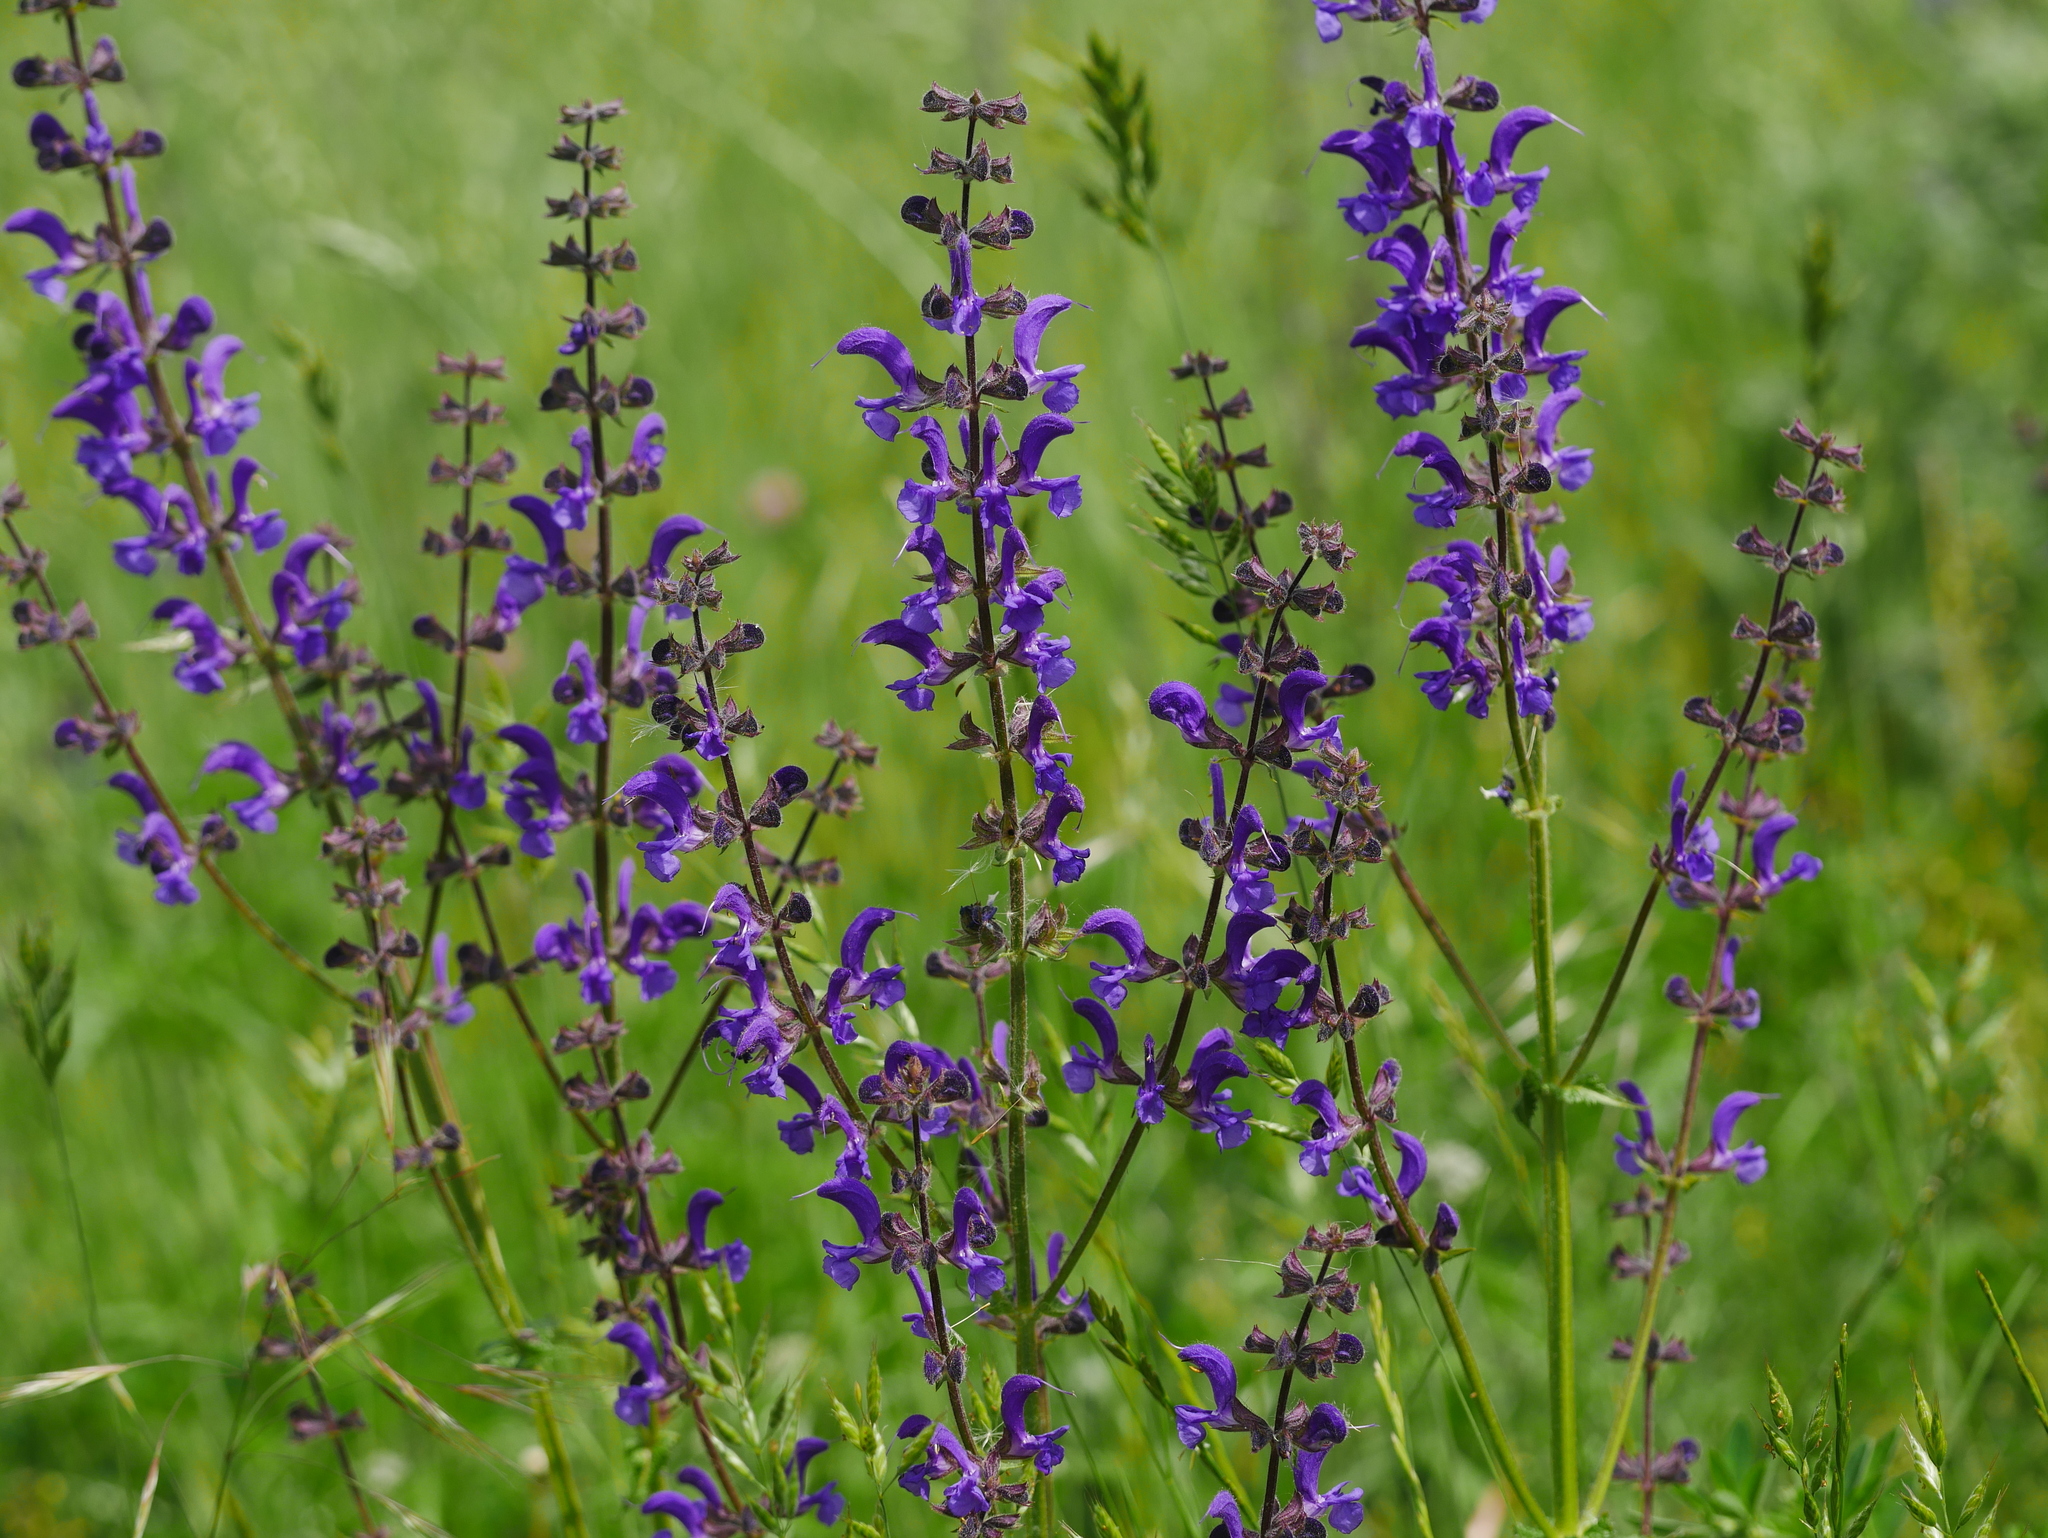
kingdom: Plantae
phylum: Tracheophyta
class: Magnoliopsida
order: Lamiales
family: Lamiaceae
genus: Salvia
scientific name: Salvia pratensis
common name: Meadow sage
